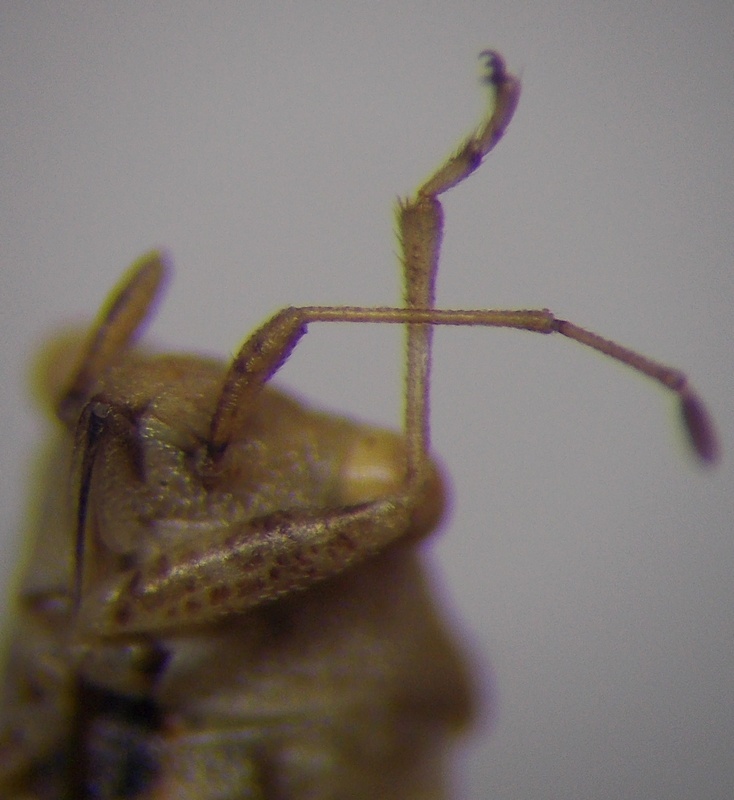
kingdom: Animalia
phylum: Arthropoda
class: Insecta
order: Hemiptera
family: Geocoridae
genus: Engistus
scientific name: Engistus exsanguis
